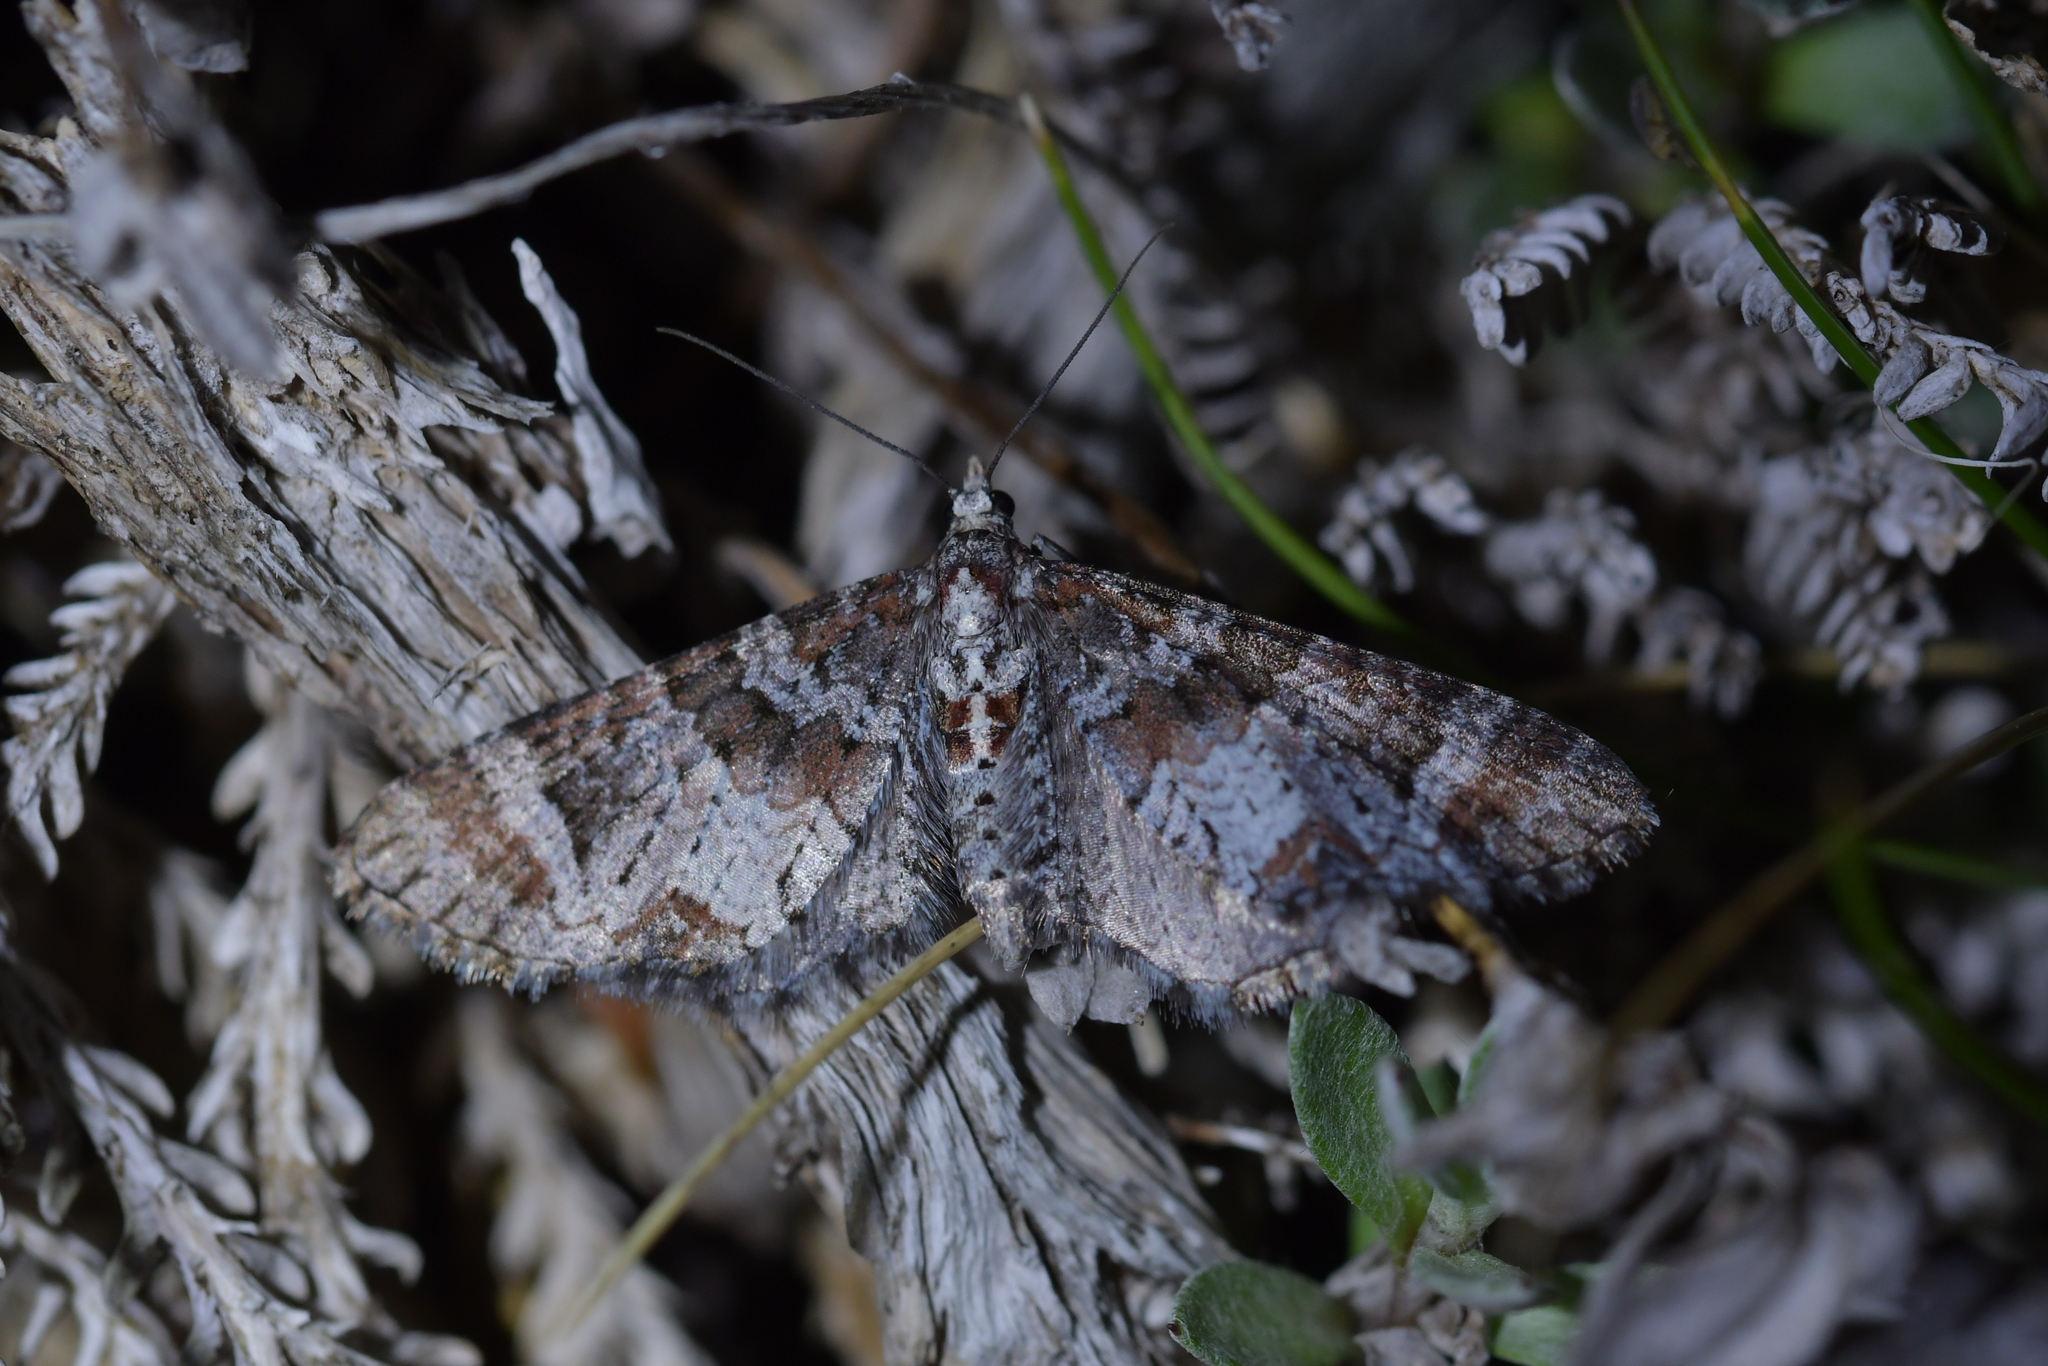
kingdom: Animalia
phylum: Arthropoda
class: Insecta
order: Lepidoptera
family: Geometridae
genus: Pasiphila
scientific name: Pasiphila halianthes
